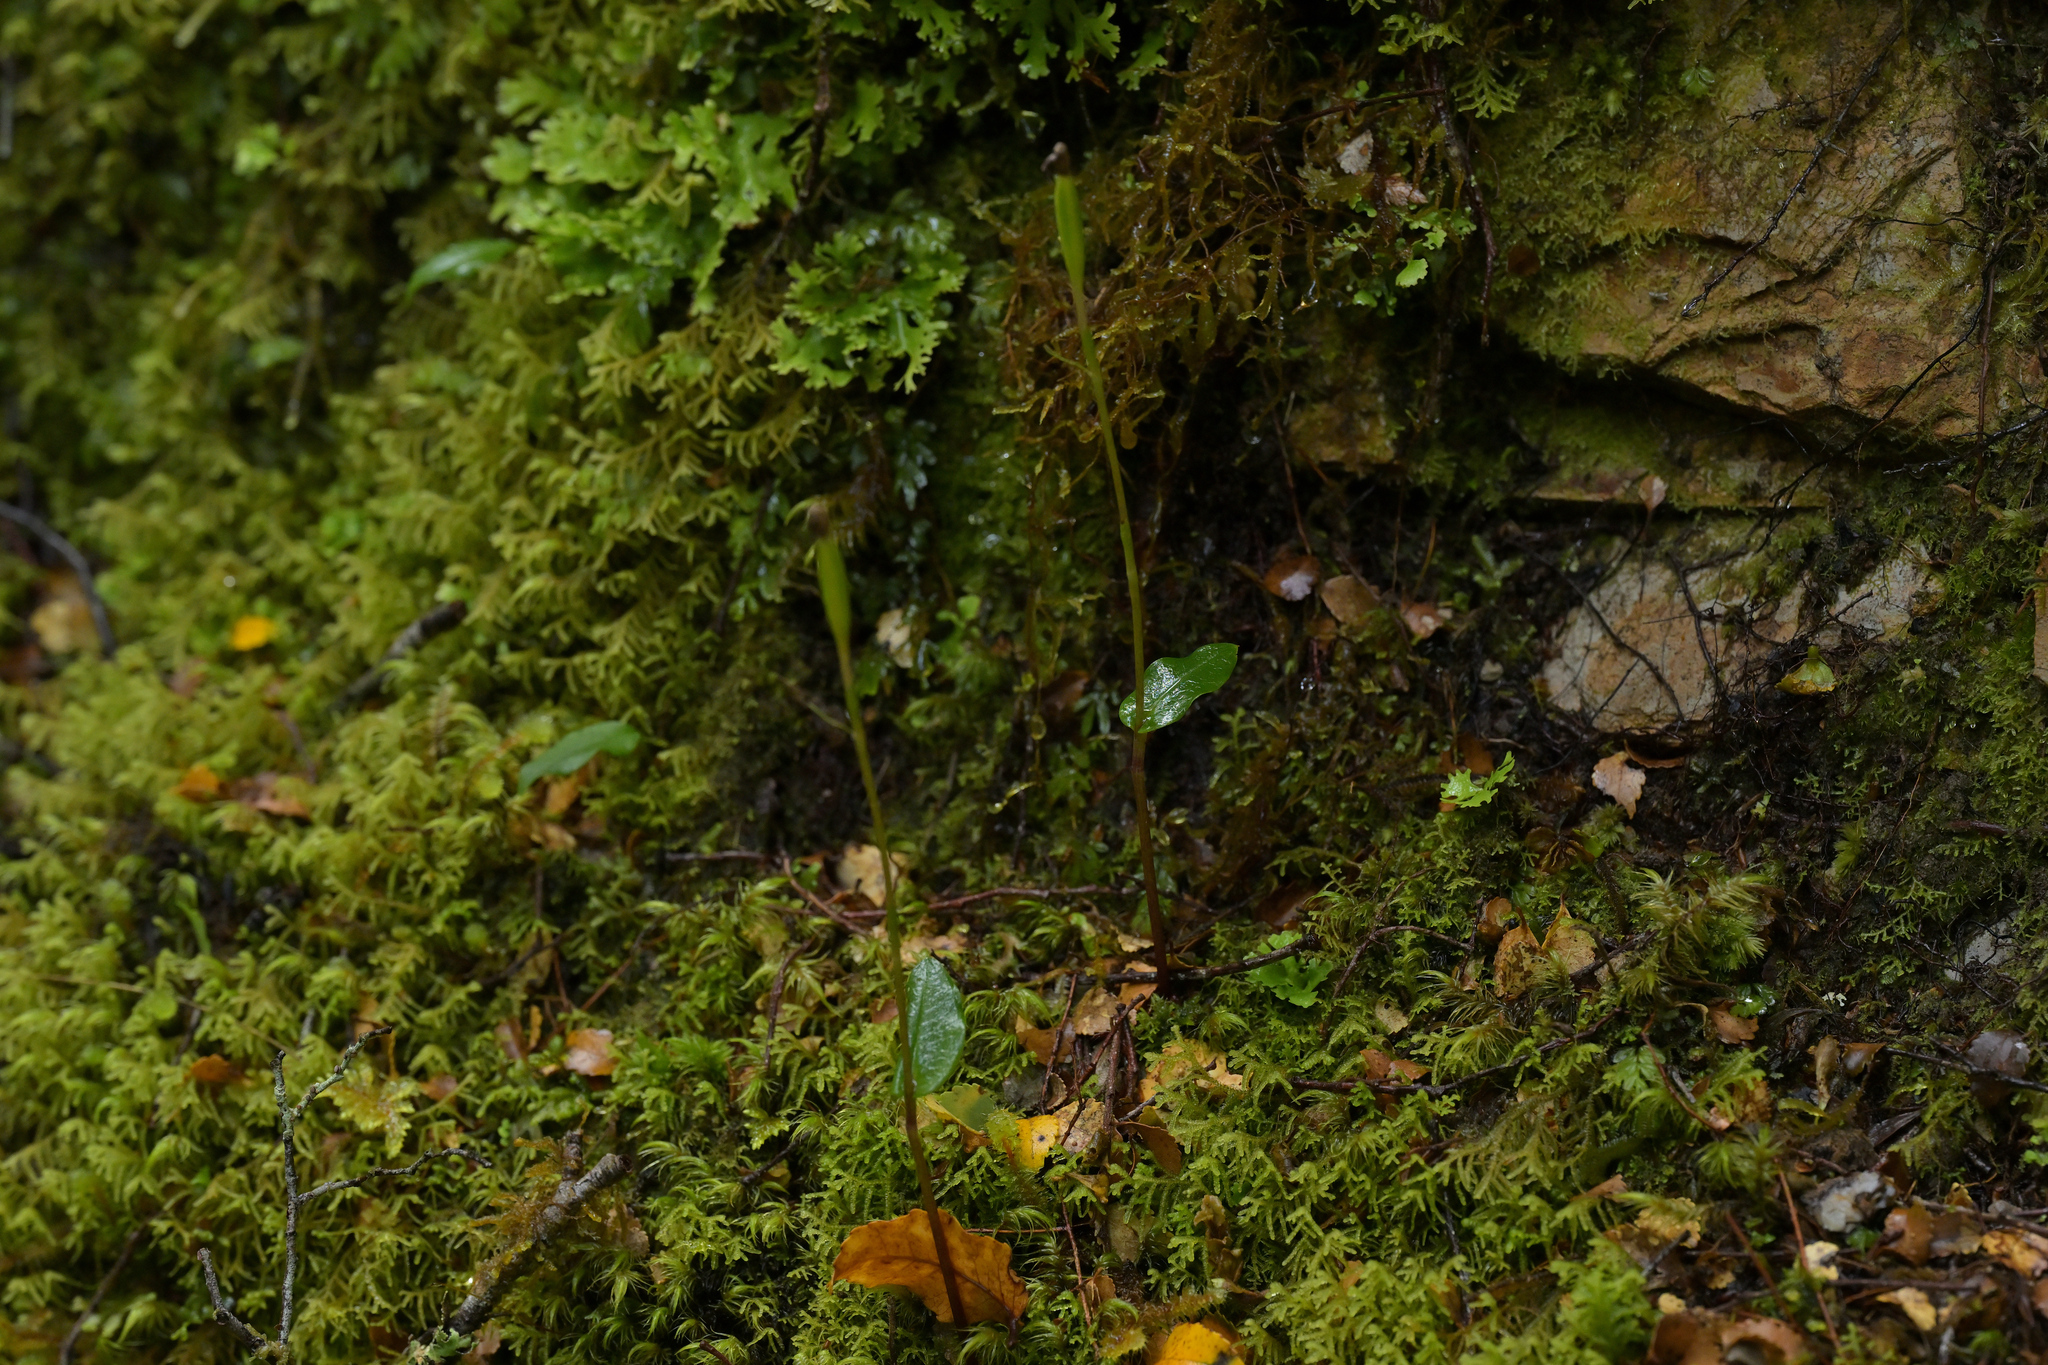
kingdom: Plantae
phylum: Tracheophyta
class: Liliopsida
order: Asparagales
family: Orchidaceae
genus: Adenochilus
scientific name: Adenochilus gracilis
